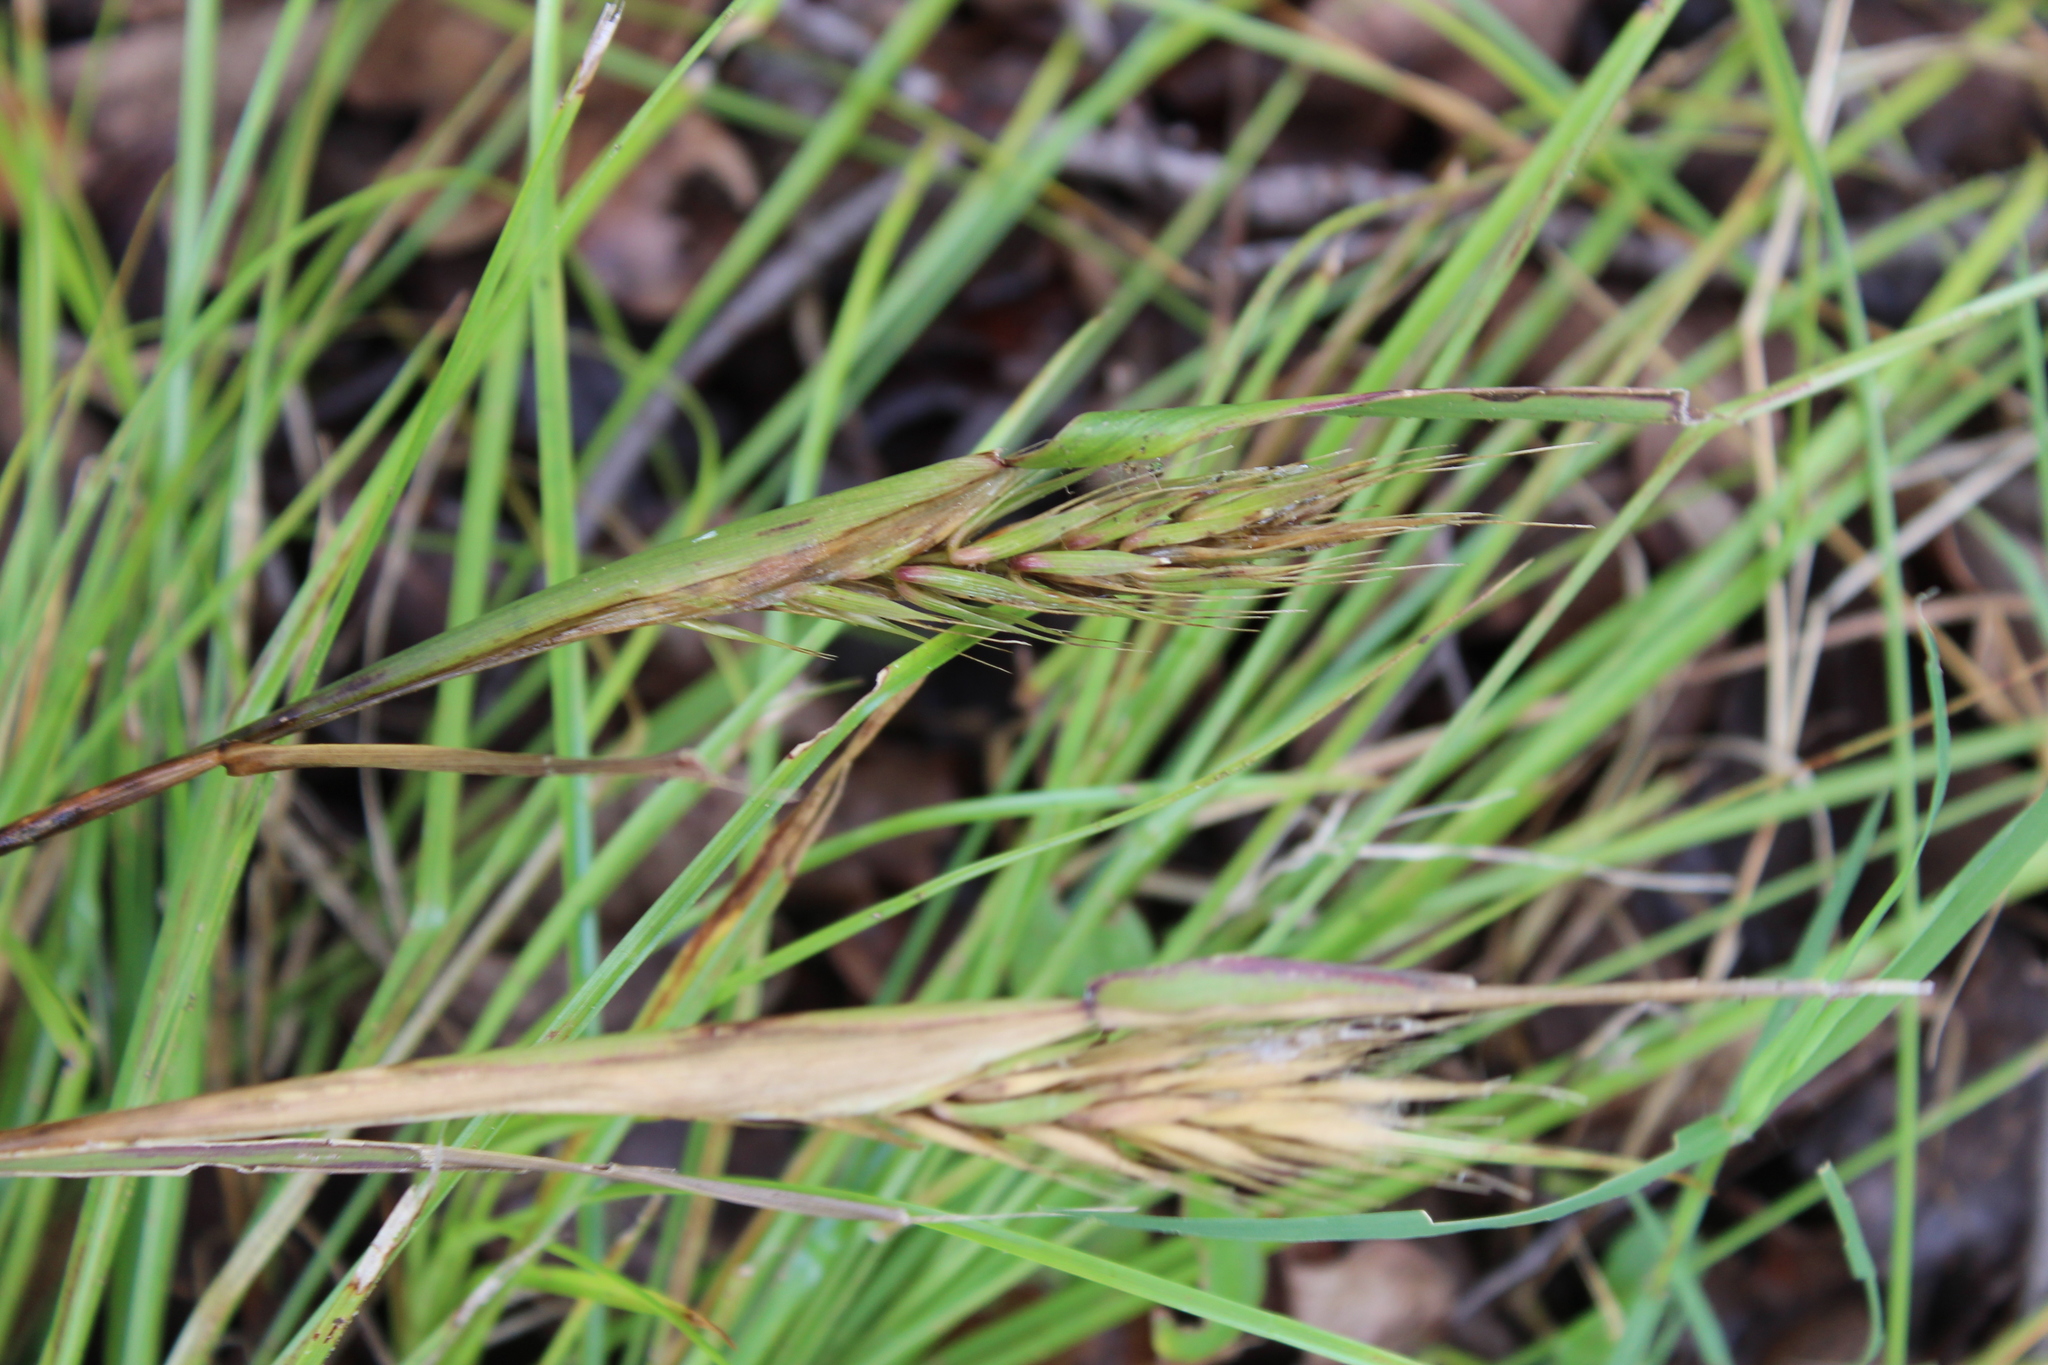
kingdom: Plantae
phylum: Tracheophyta
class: Liliopsida
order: Poales
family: Poaceae
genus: Elymus
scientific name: Elymus virginicus
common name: Common eastern wildrye
